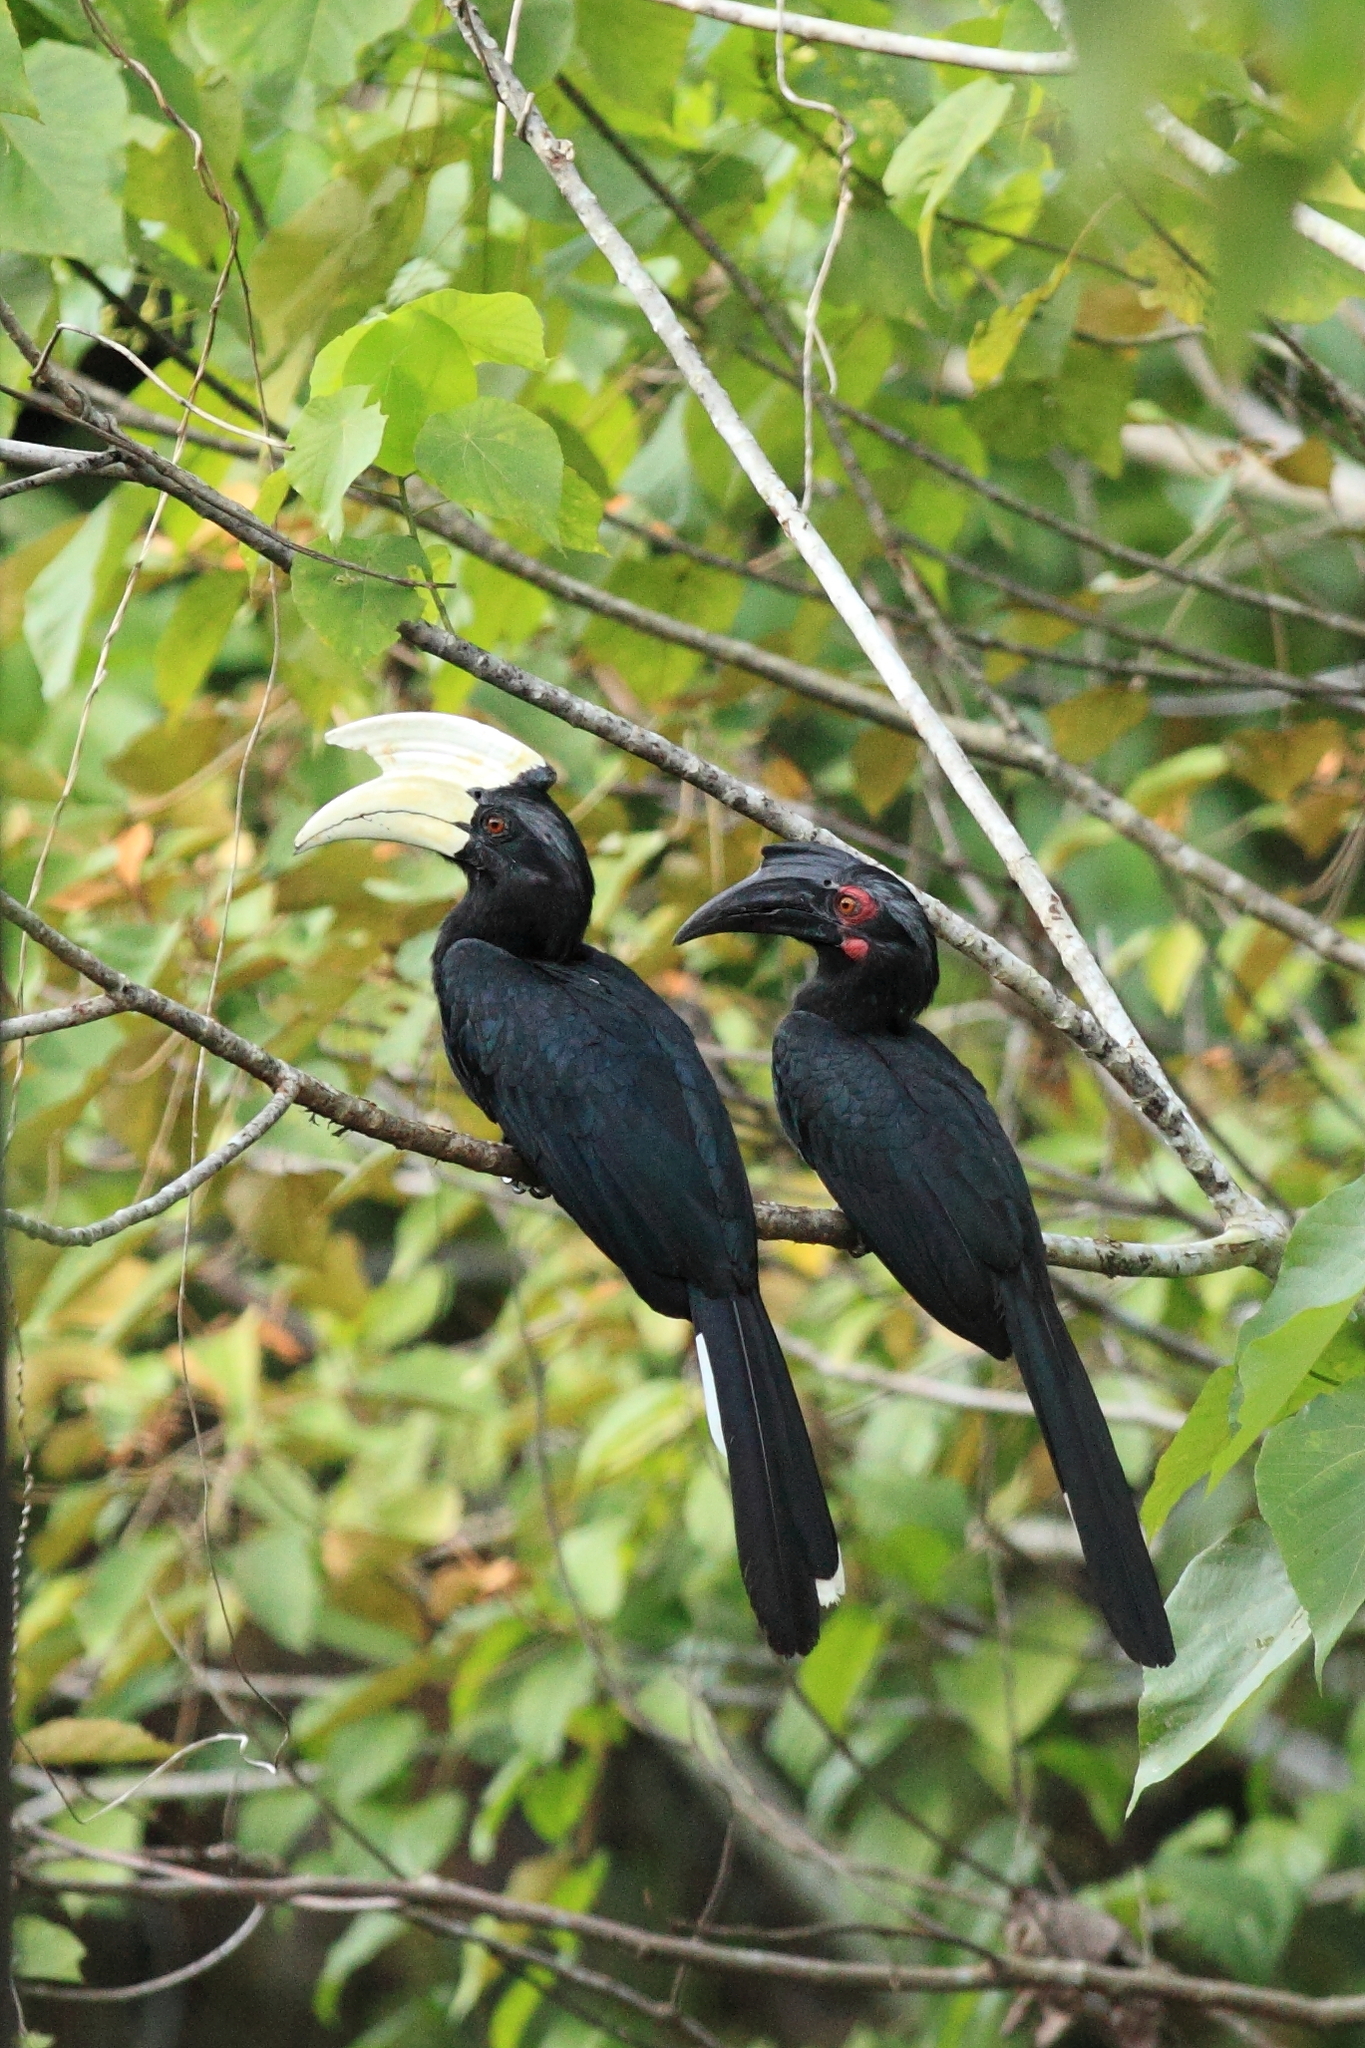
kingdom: Animalia
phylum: Chordata
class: Aves
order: Bucerotiformes
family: Bucerotidae
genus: Anthracoceros
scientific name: Anthracoceros malayanus
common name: Black hornbill
